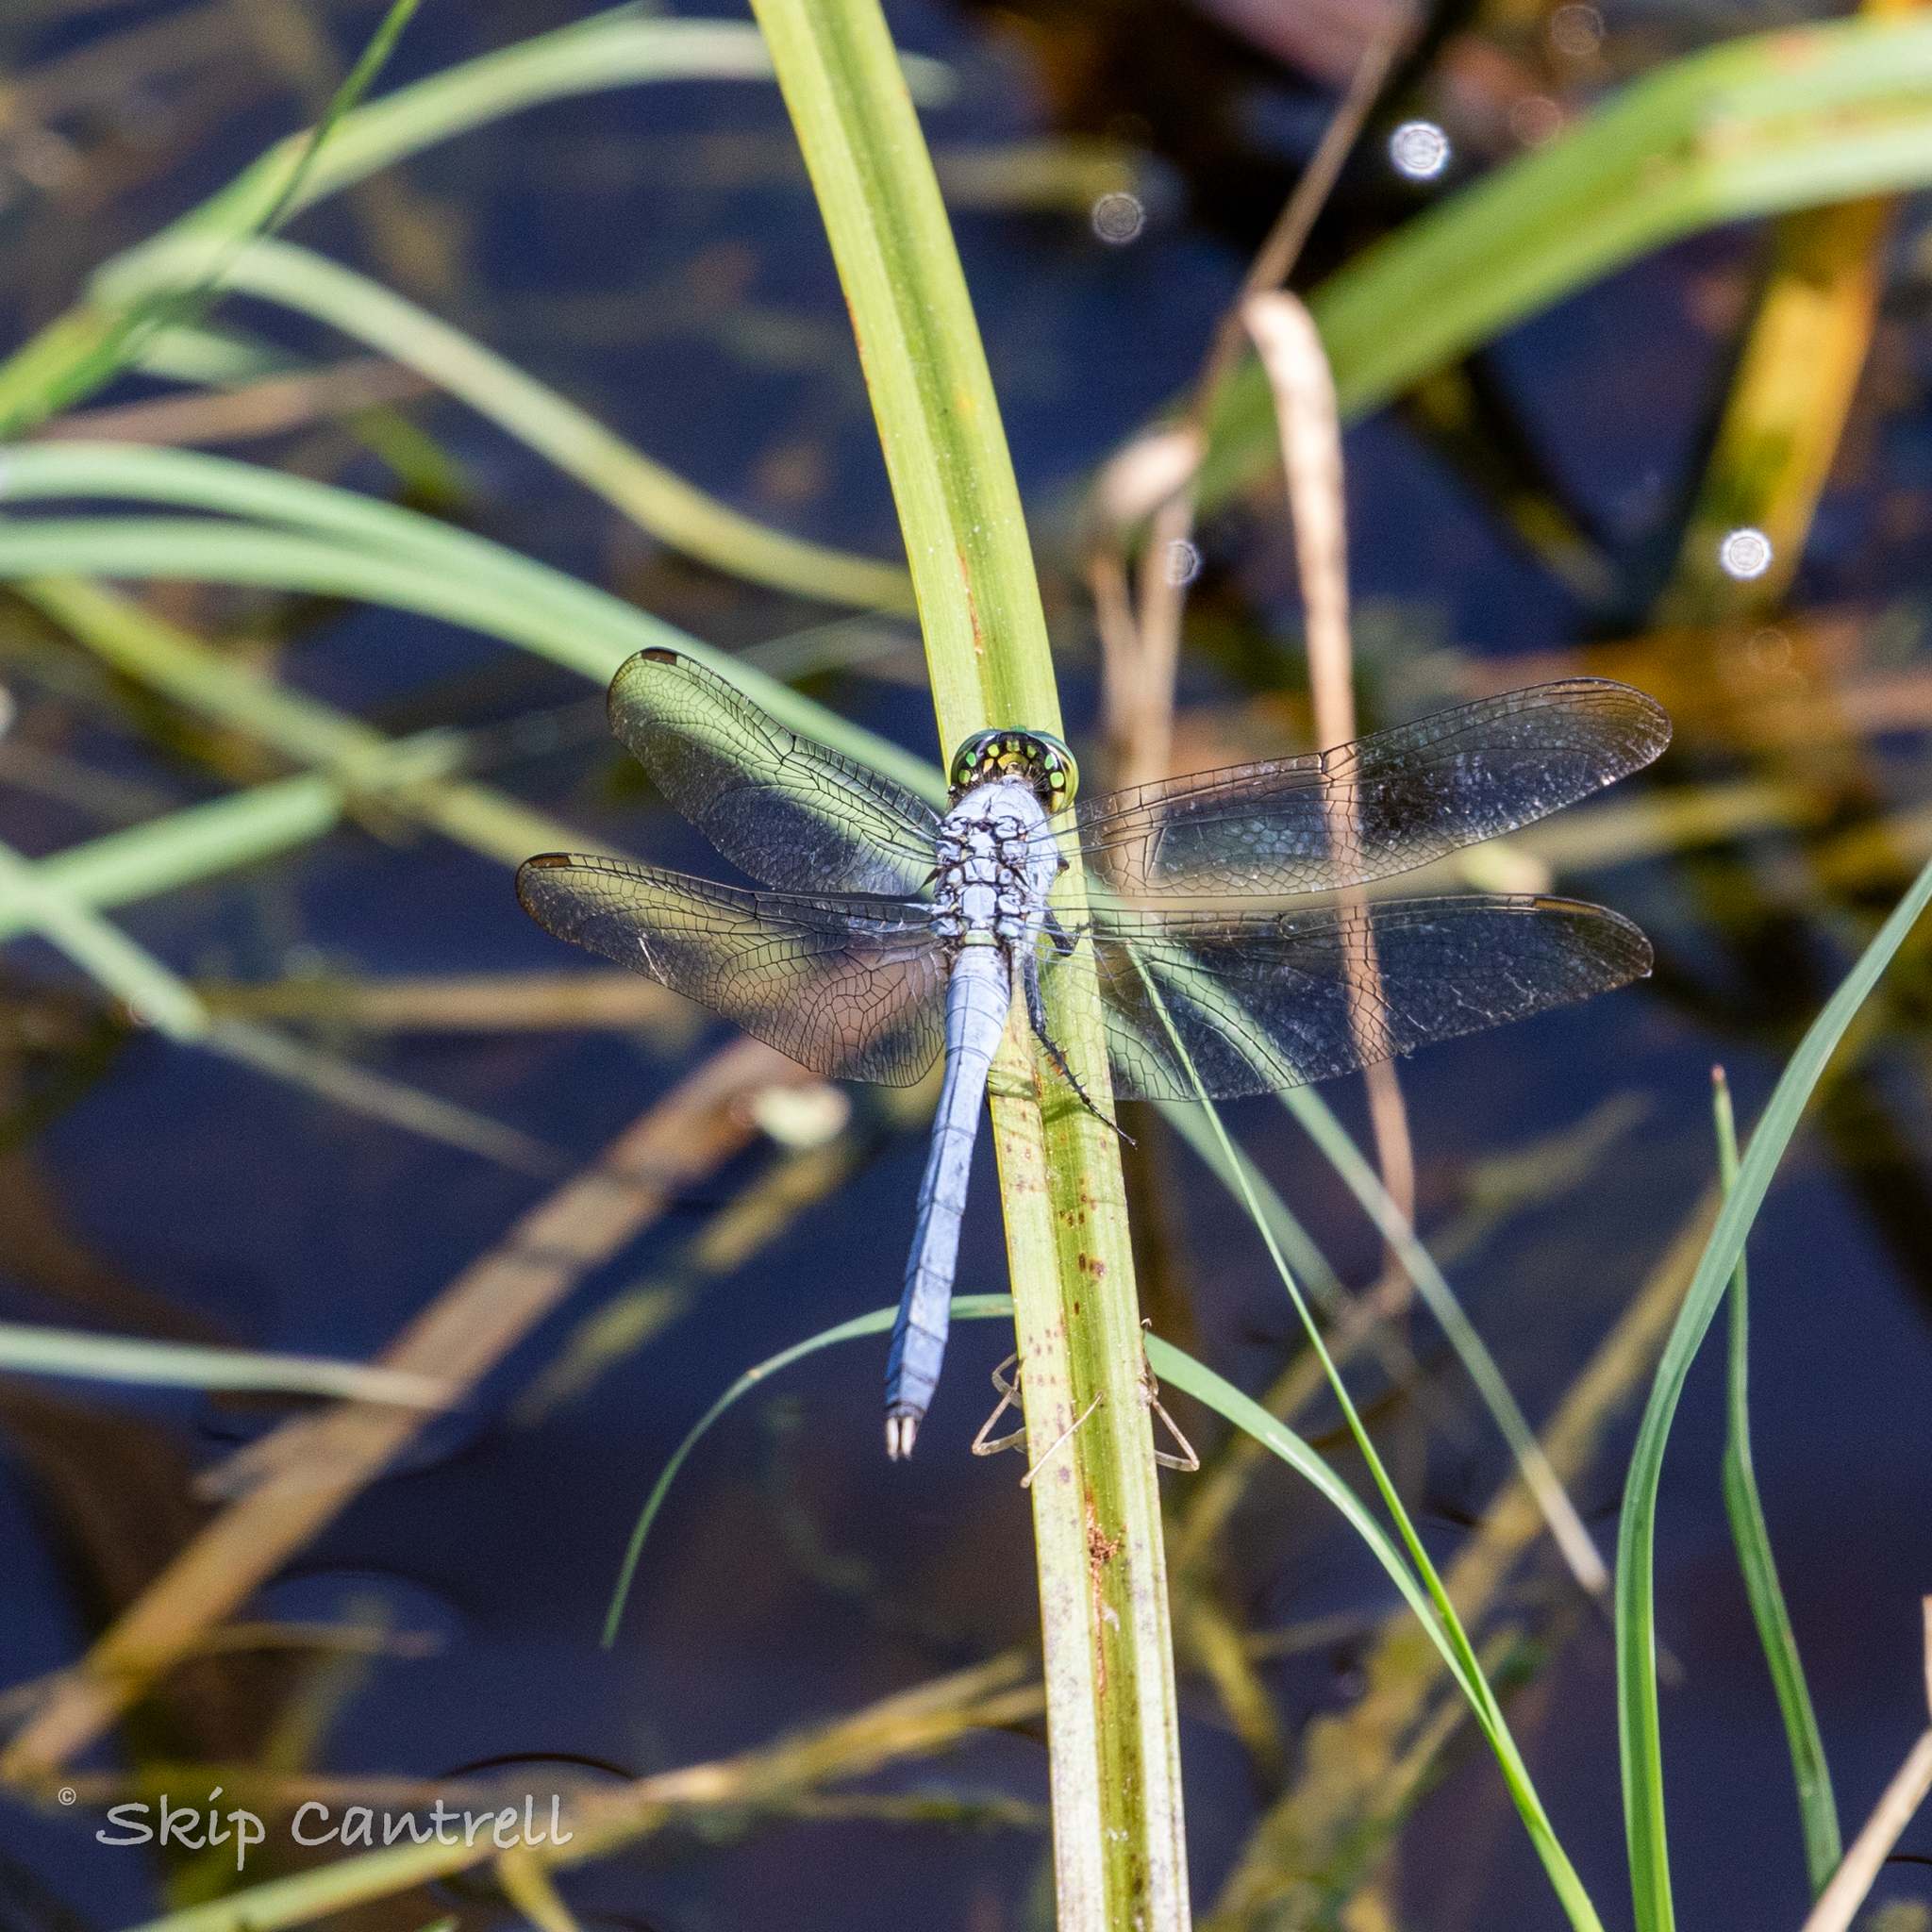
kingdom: Animalia
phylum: Arthropoda
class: Insecta
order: Odonata
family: Libellulidae
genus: Erythemis
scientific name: Erythemis simplicicollis
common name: Eastern pondhawk
